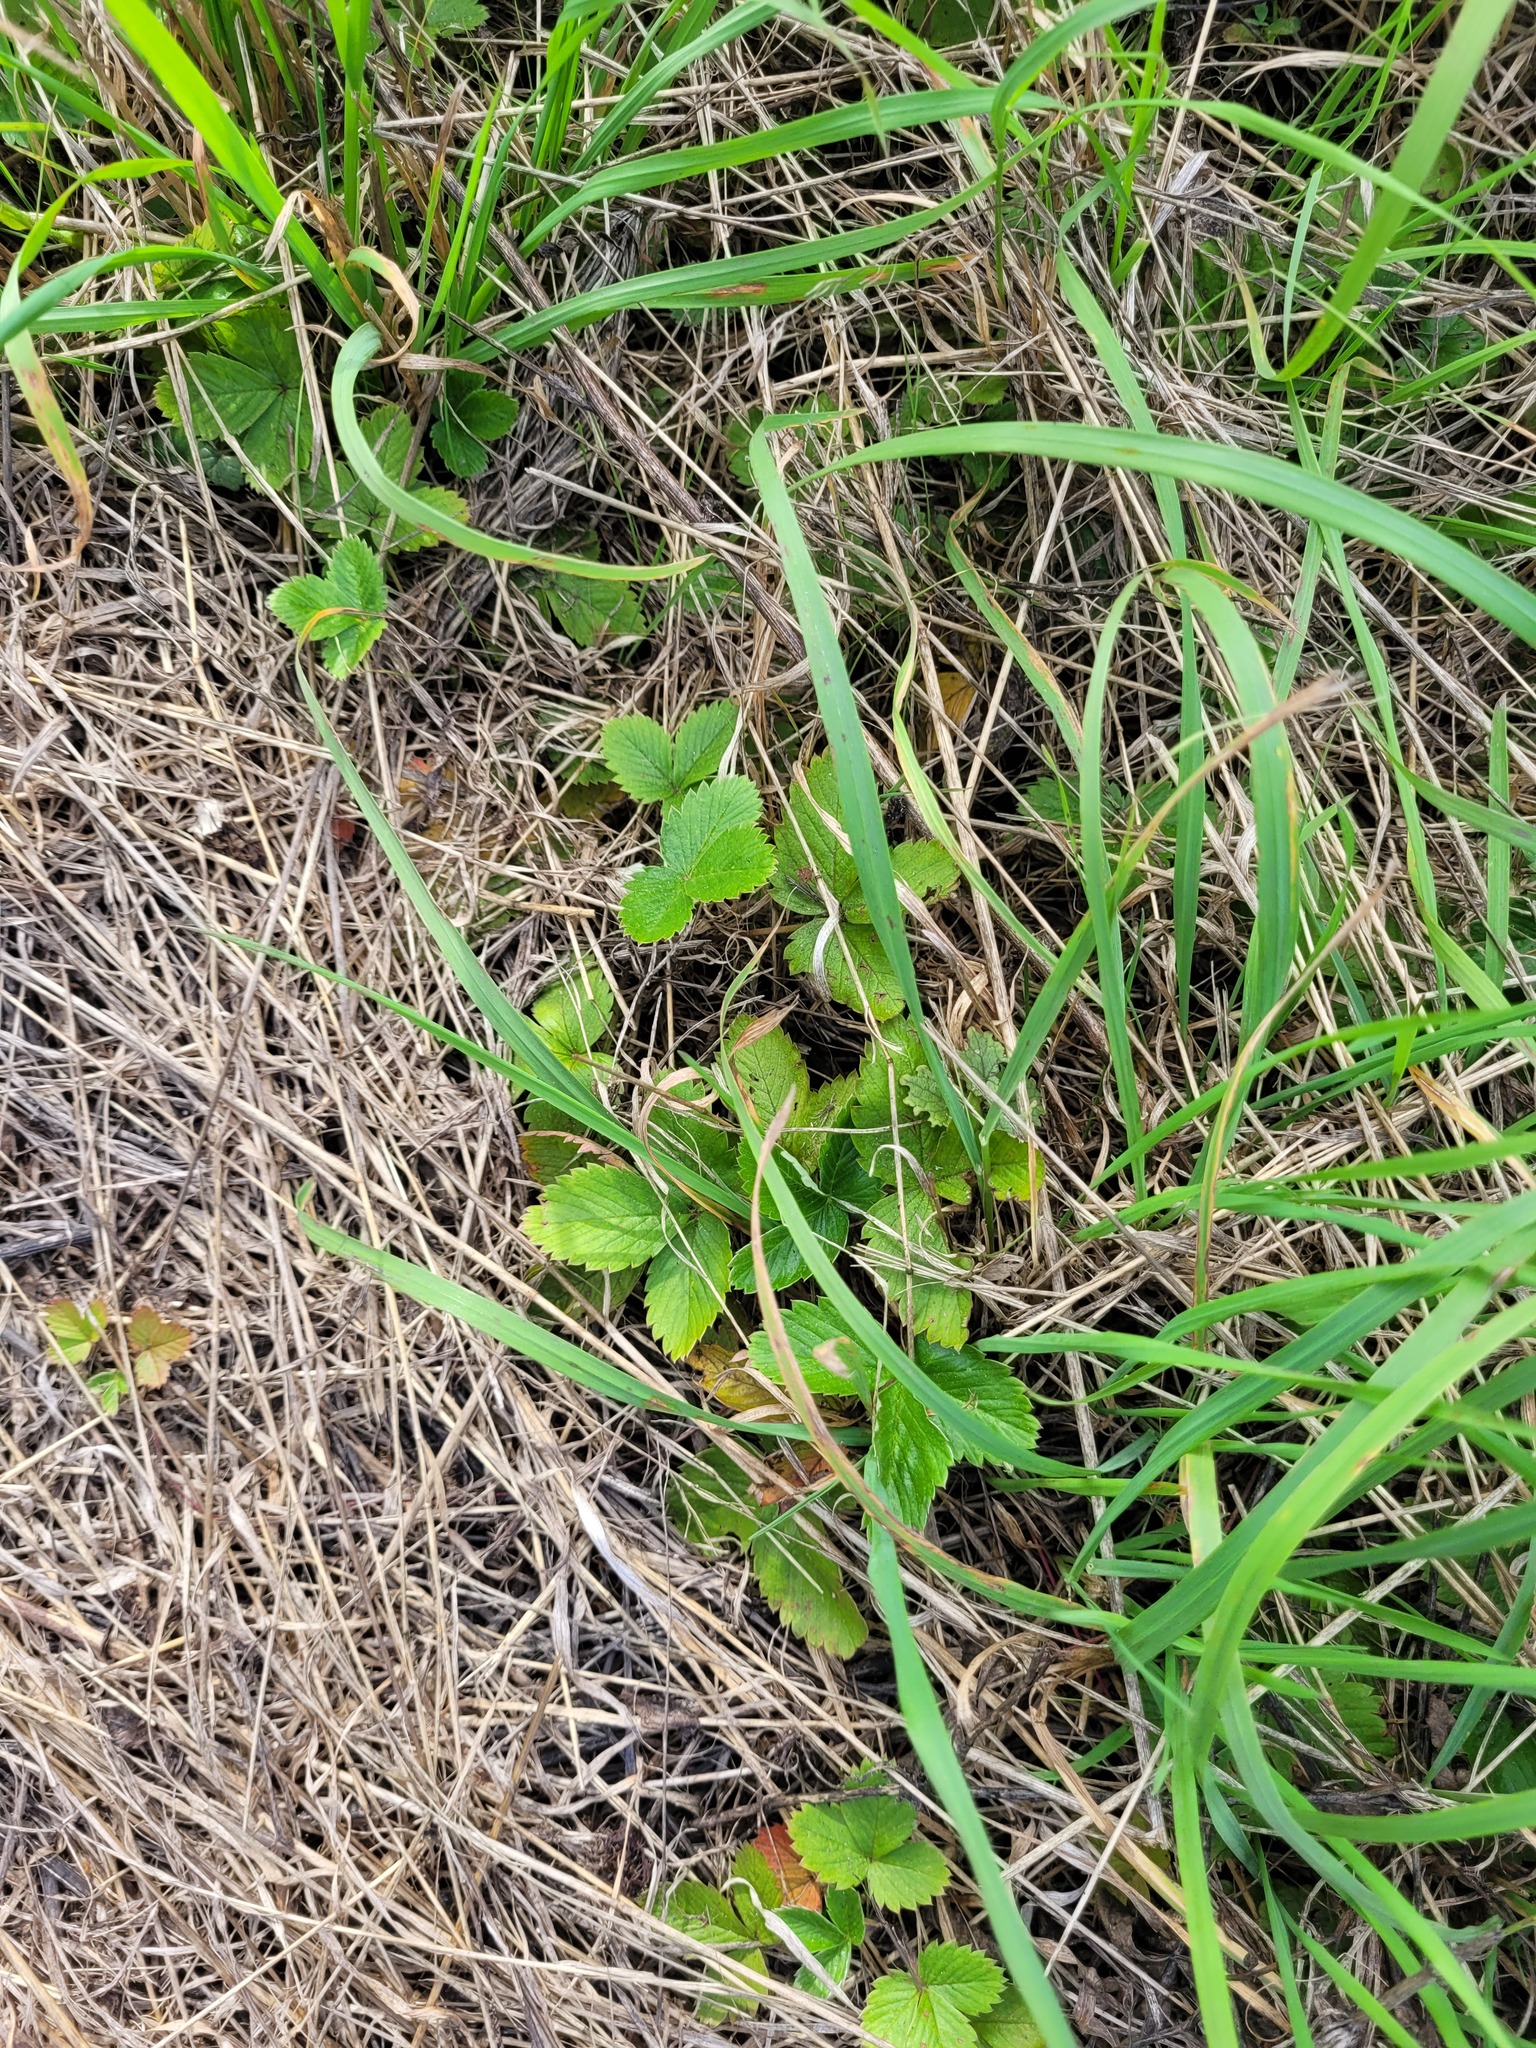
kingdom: Plantae
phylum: Tracheophyta
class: Magnoliopsida
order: Rosales
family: Rosaceae
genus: Fragaria
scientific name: Fragaria viridis
